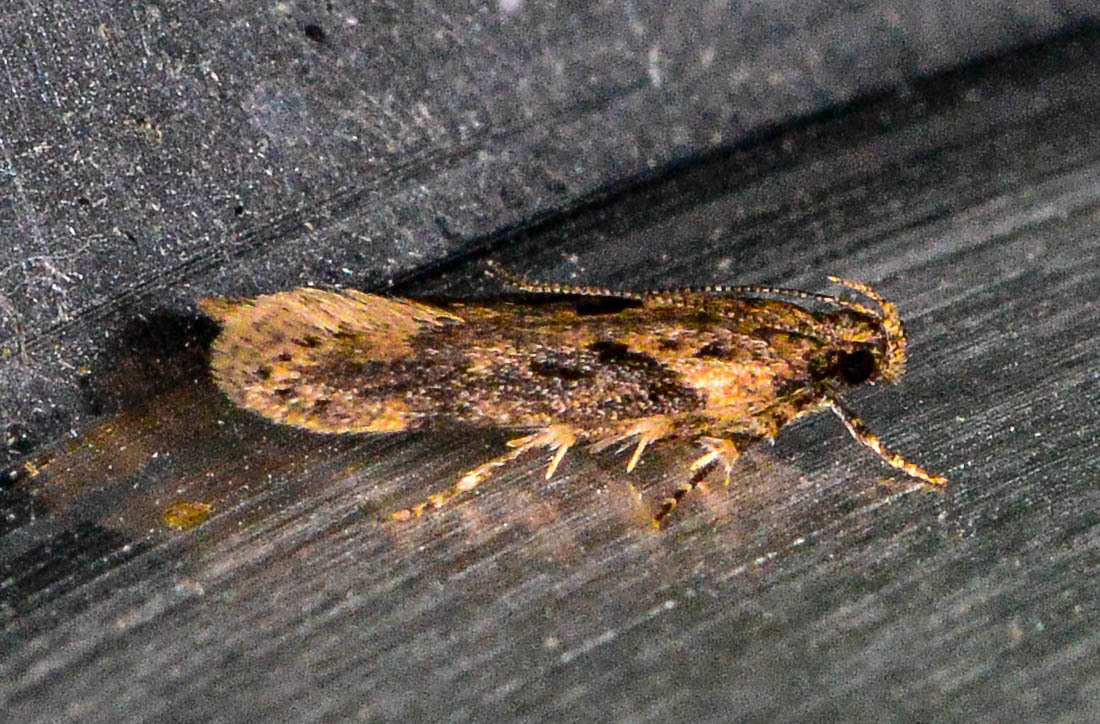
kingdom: Animalia
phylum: Arthropoda
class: Insecta
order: Lepidoptera
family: Gelechiidae
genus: Chionodes
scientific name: Chionodes mediofuscella
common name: Black-smudged chionodes moth
